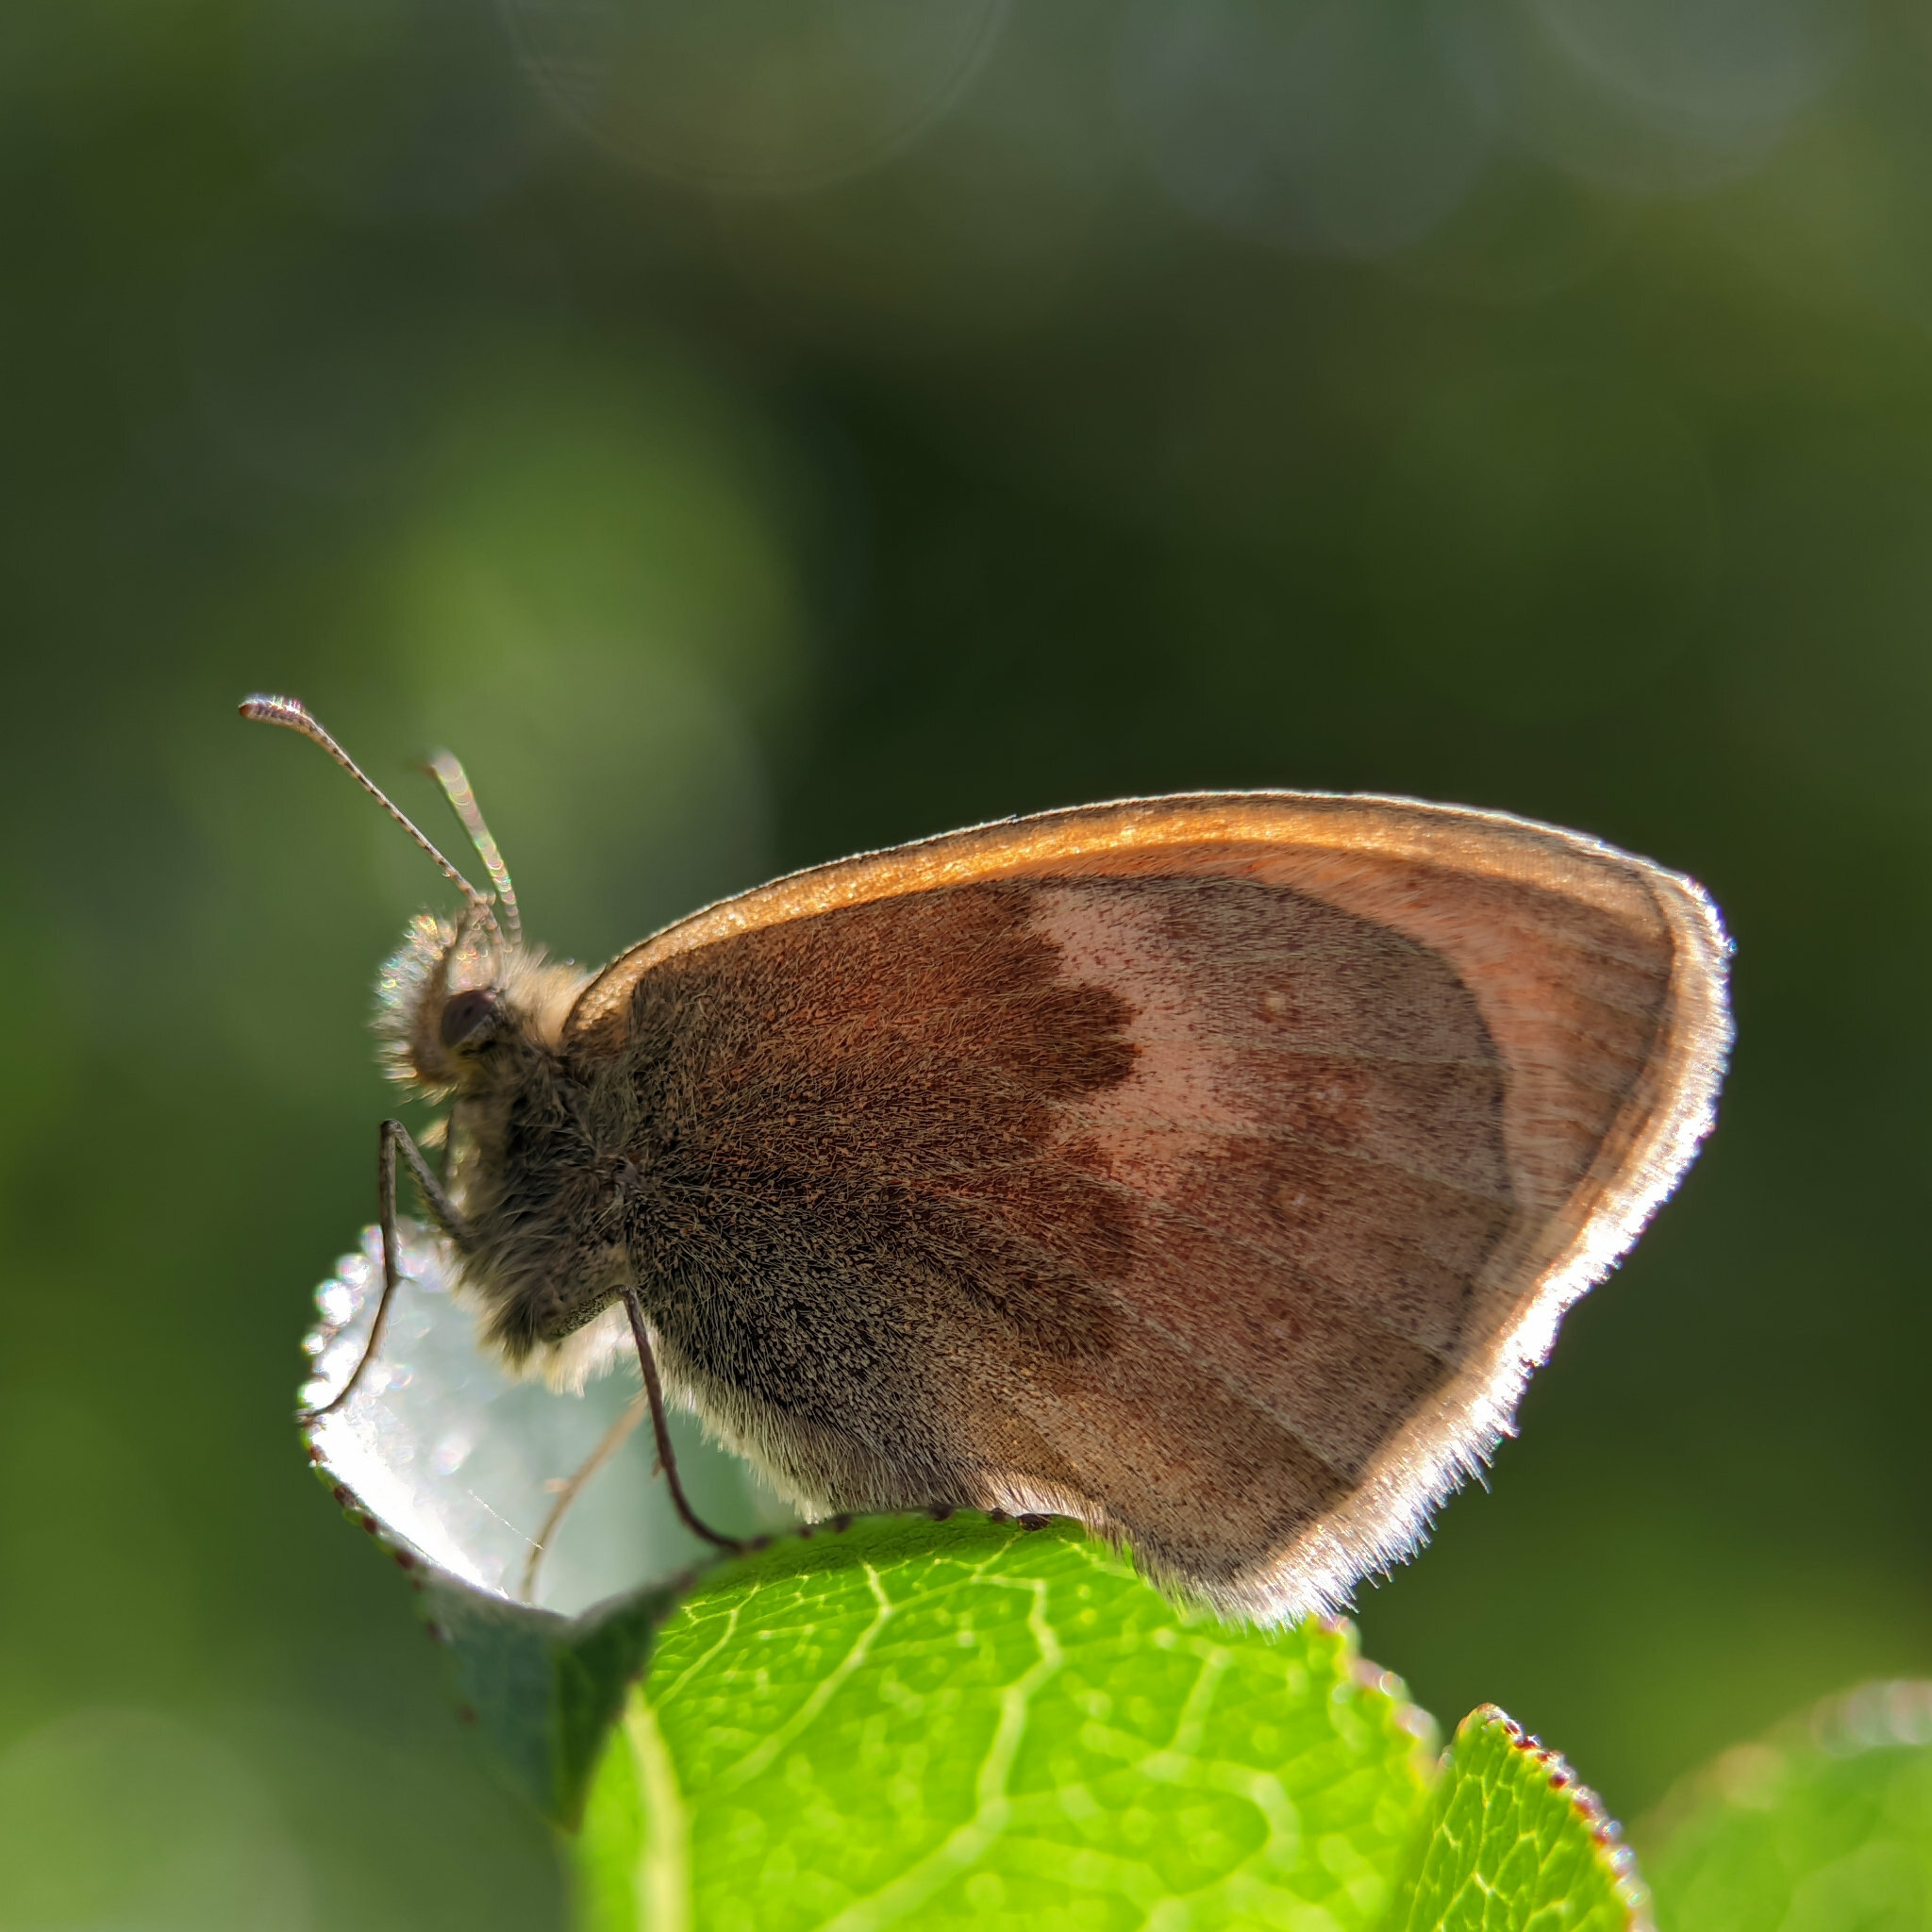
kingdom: Animalia
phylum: Arthropoda
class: Insecta
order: Lepidoptera
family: Nymphalidae
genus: Coenonympha
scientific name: Coenonympha pamphilus
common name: Small heath
